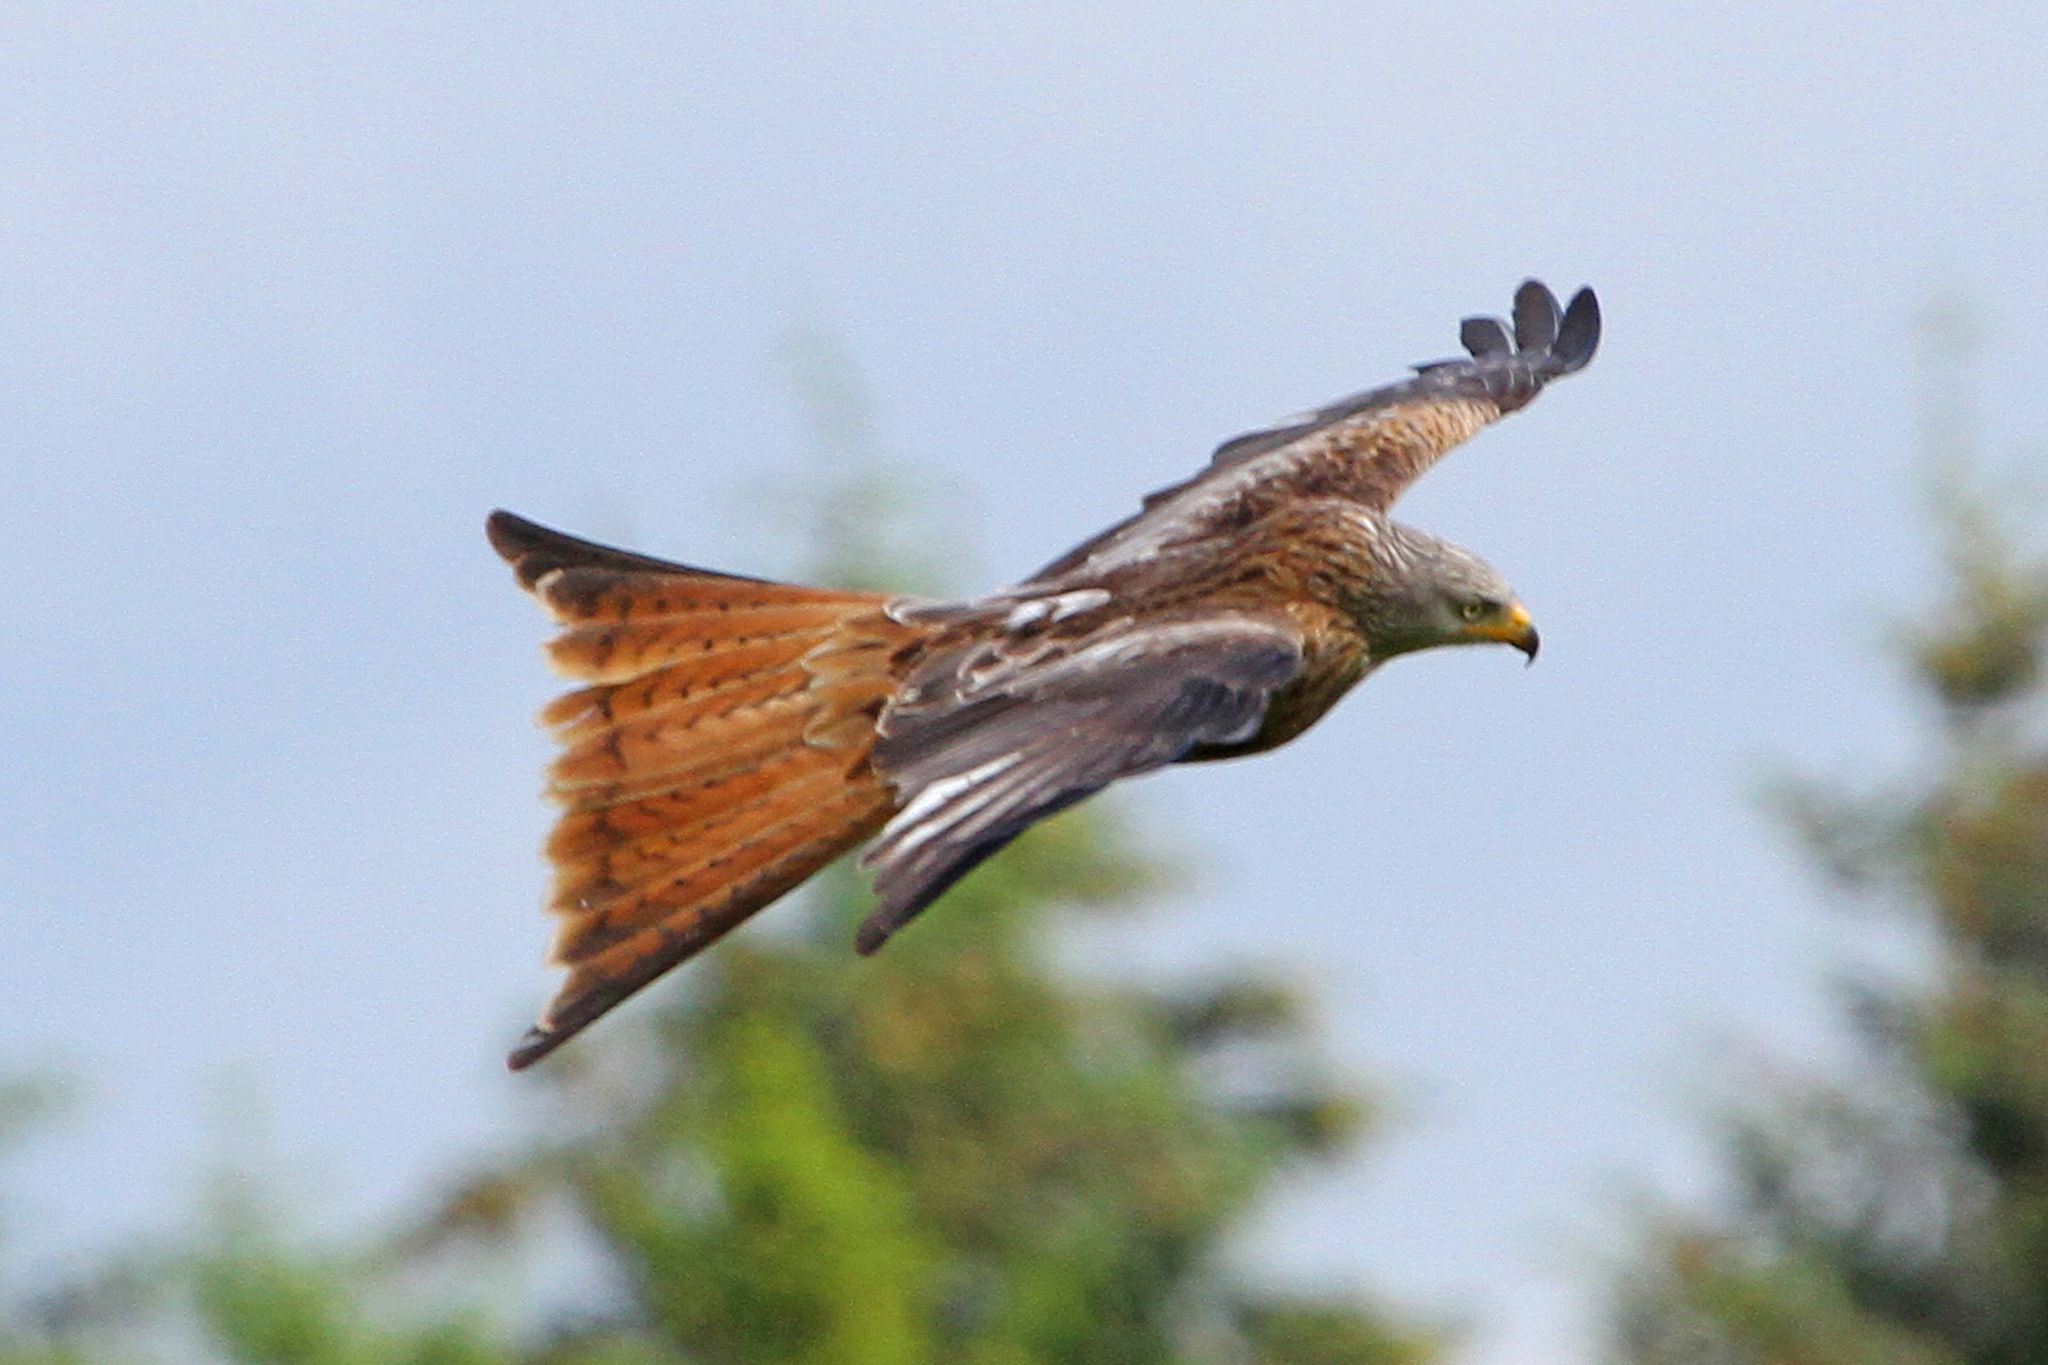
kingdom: Animalia
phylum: Chordata
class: Aves
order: Accipitriformes
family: Accipitridae
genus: Milvus
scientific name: Milvus milvus
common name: Red kite
